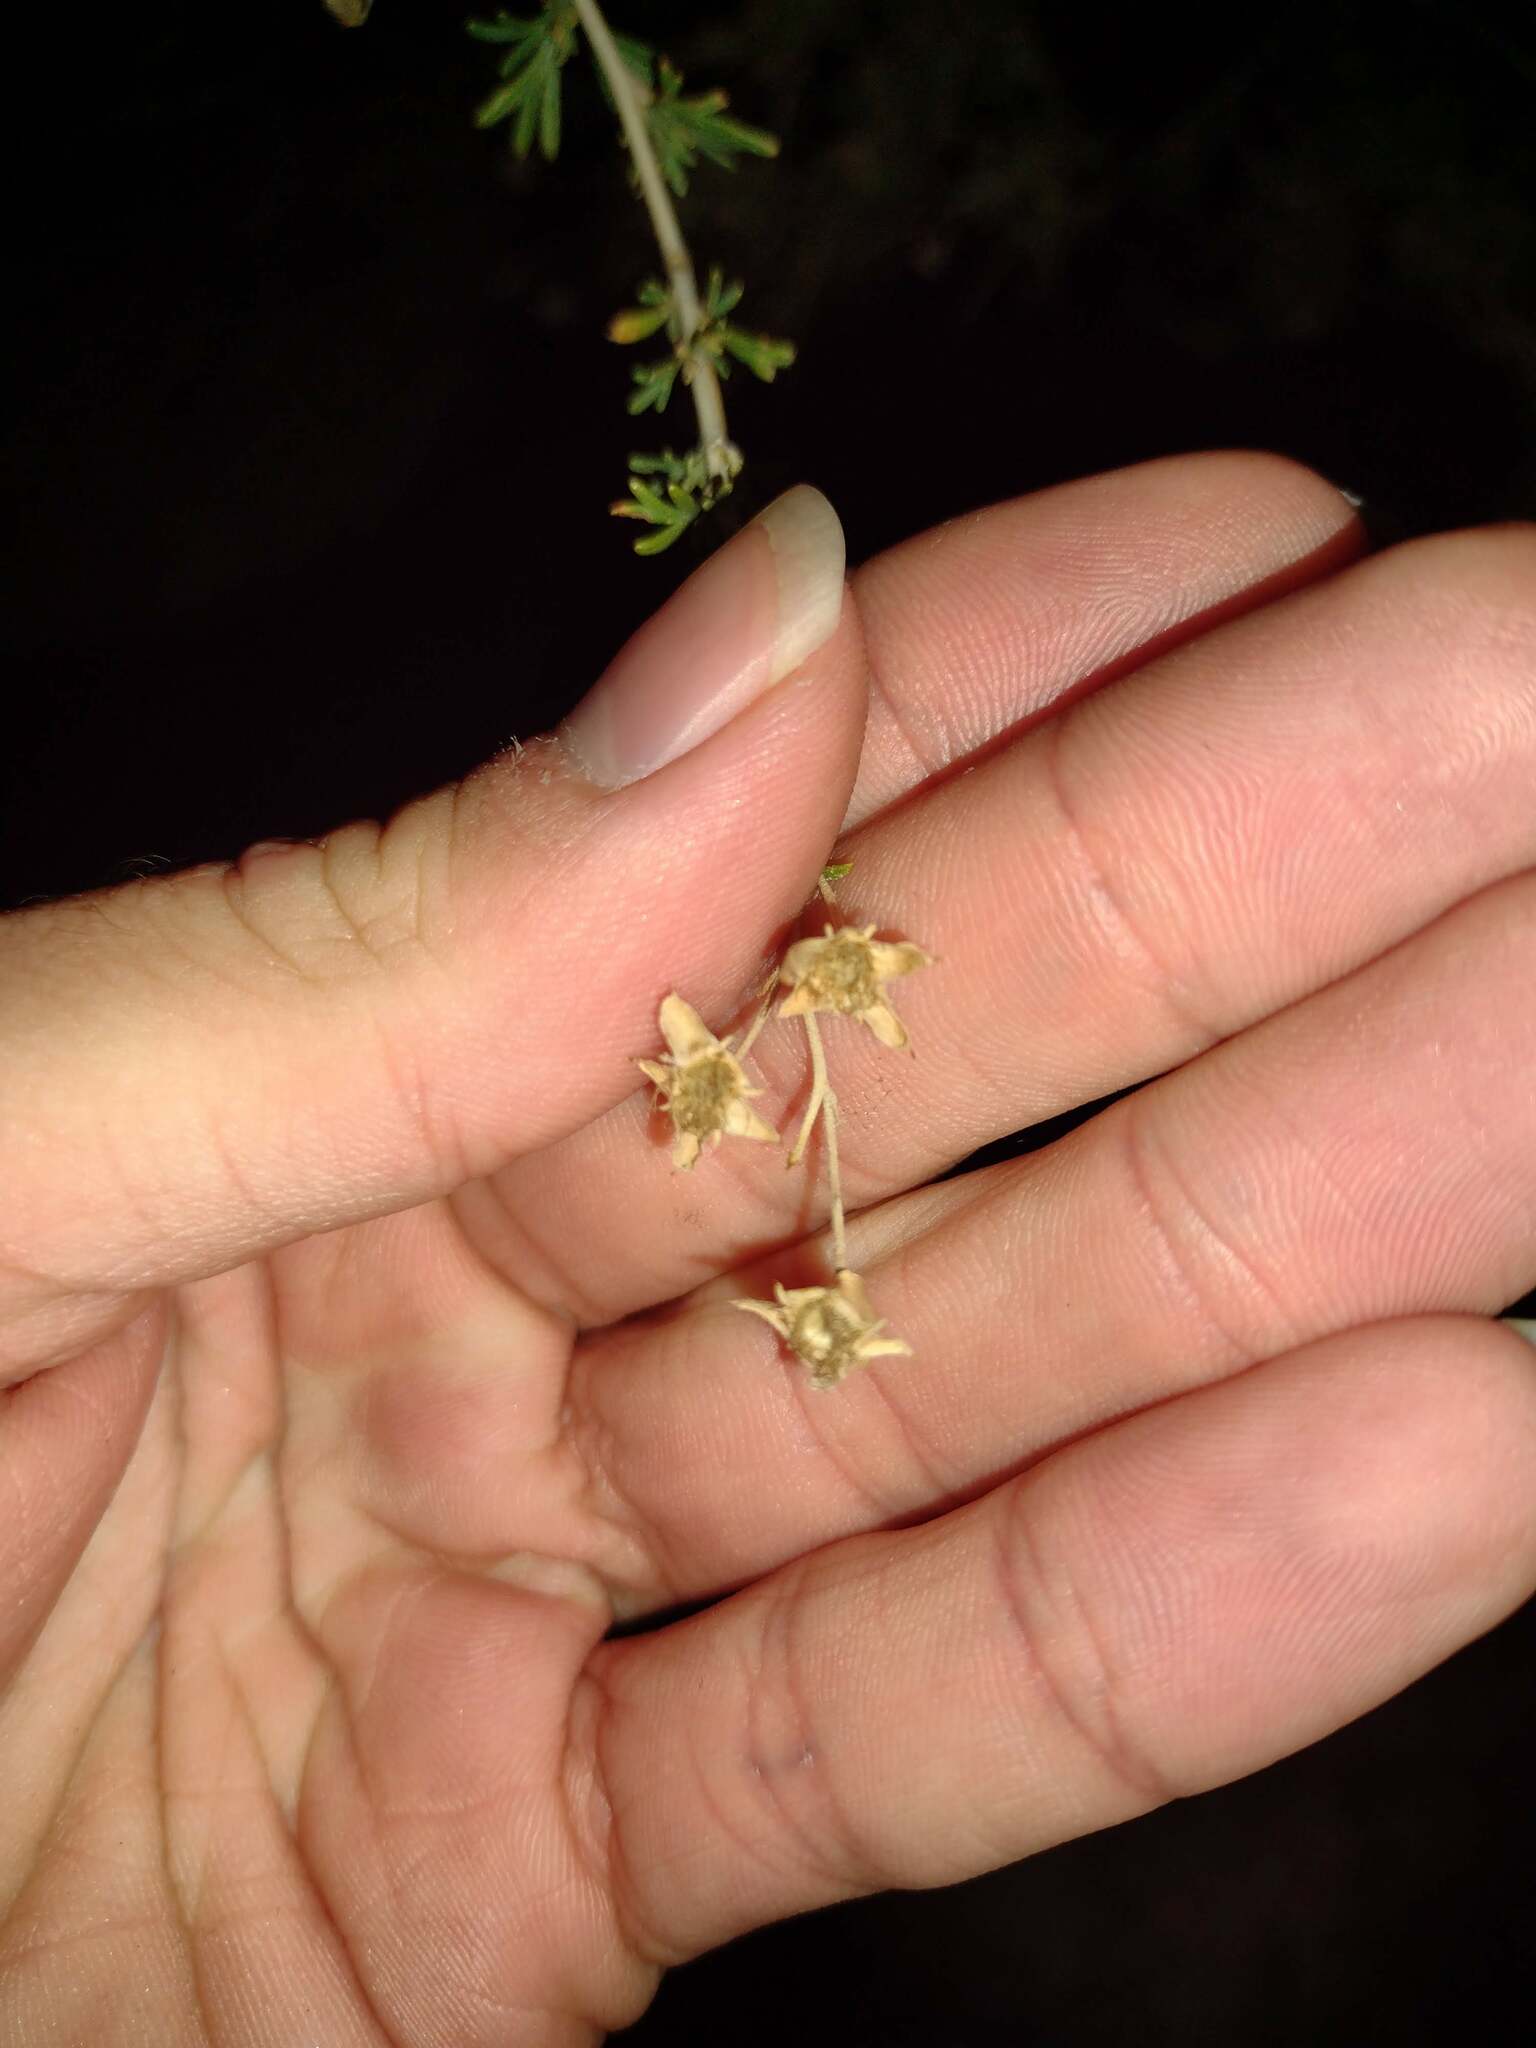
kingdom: Plantae
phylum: Tracheophyta
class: Magnoliopsida
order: Rosales
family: Rosaceae
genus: Fallugia
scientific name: Fallugia paradoxa
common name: Apache-plume
